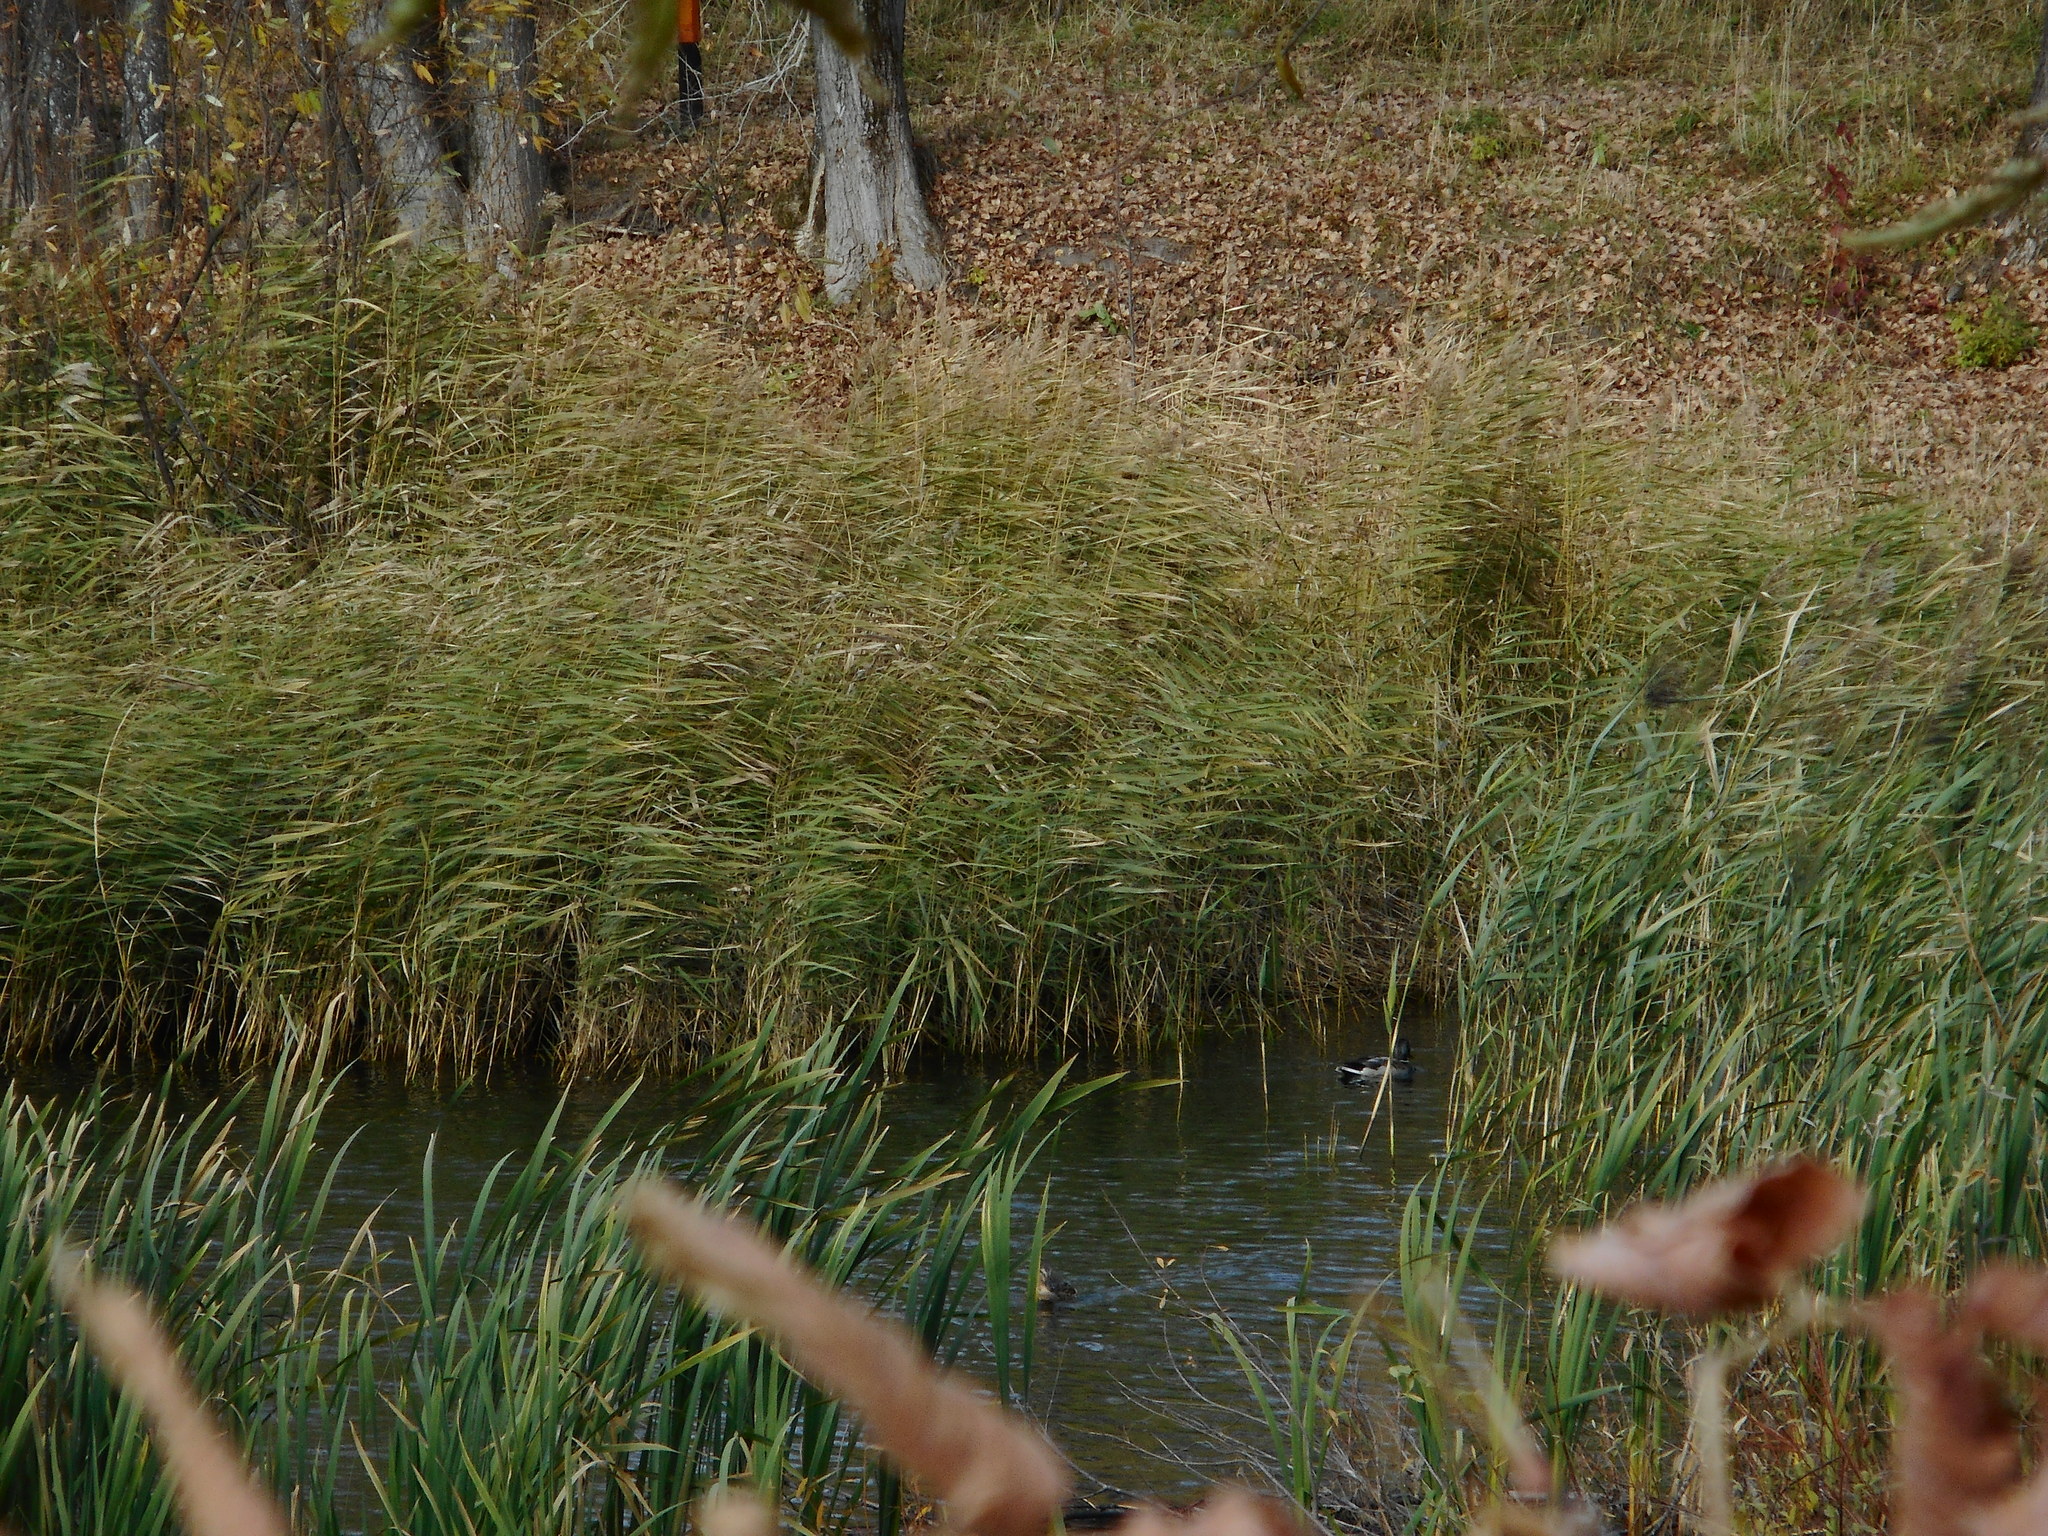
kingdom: Plantae
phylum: Tracheophyta
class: Liliopsida
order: Poales
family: Poaceae
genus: Phragmites
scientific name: Phragmites australis
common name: Common reed
